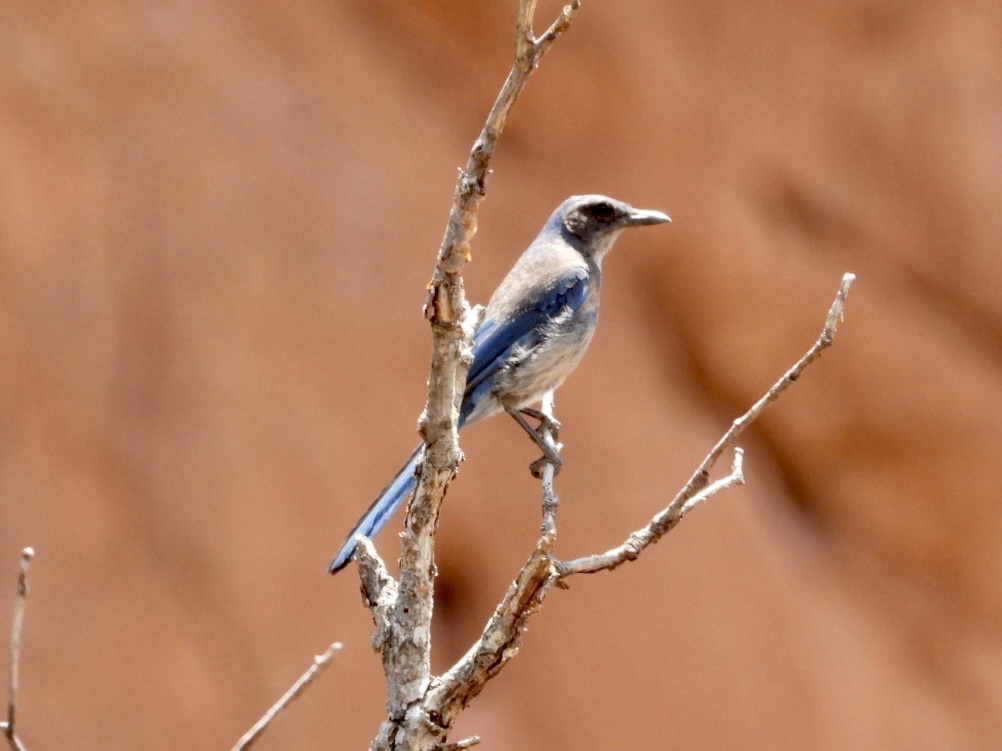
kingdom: Animalia
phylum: Chordata
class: Aves
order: Passeriformes
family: Corvidae
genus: Aphelocoma
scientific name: Aphelocoma woodhouseii
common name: Woodhouse's scrub-jay
